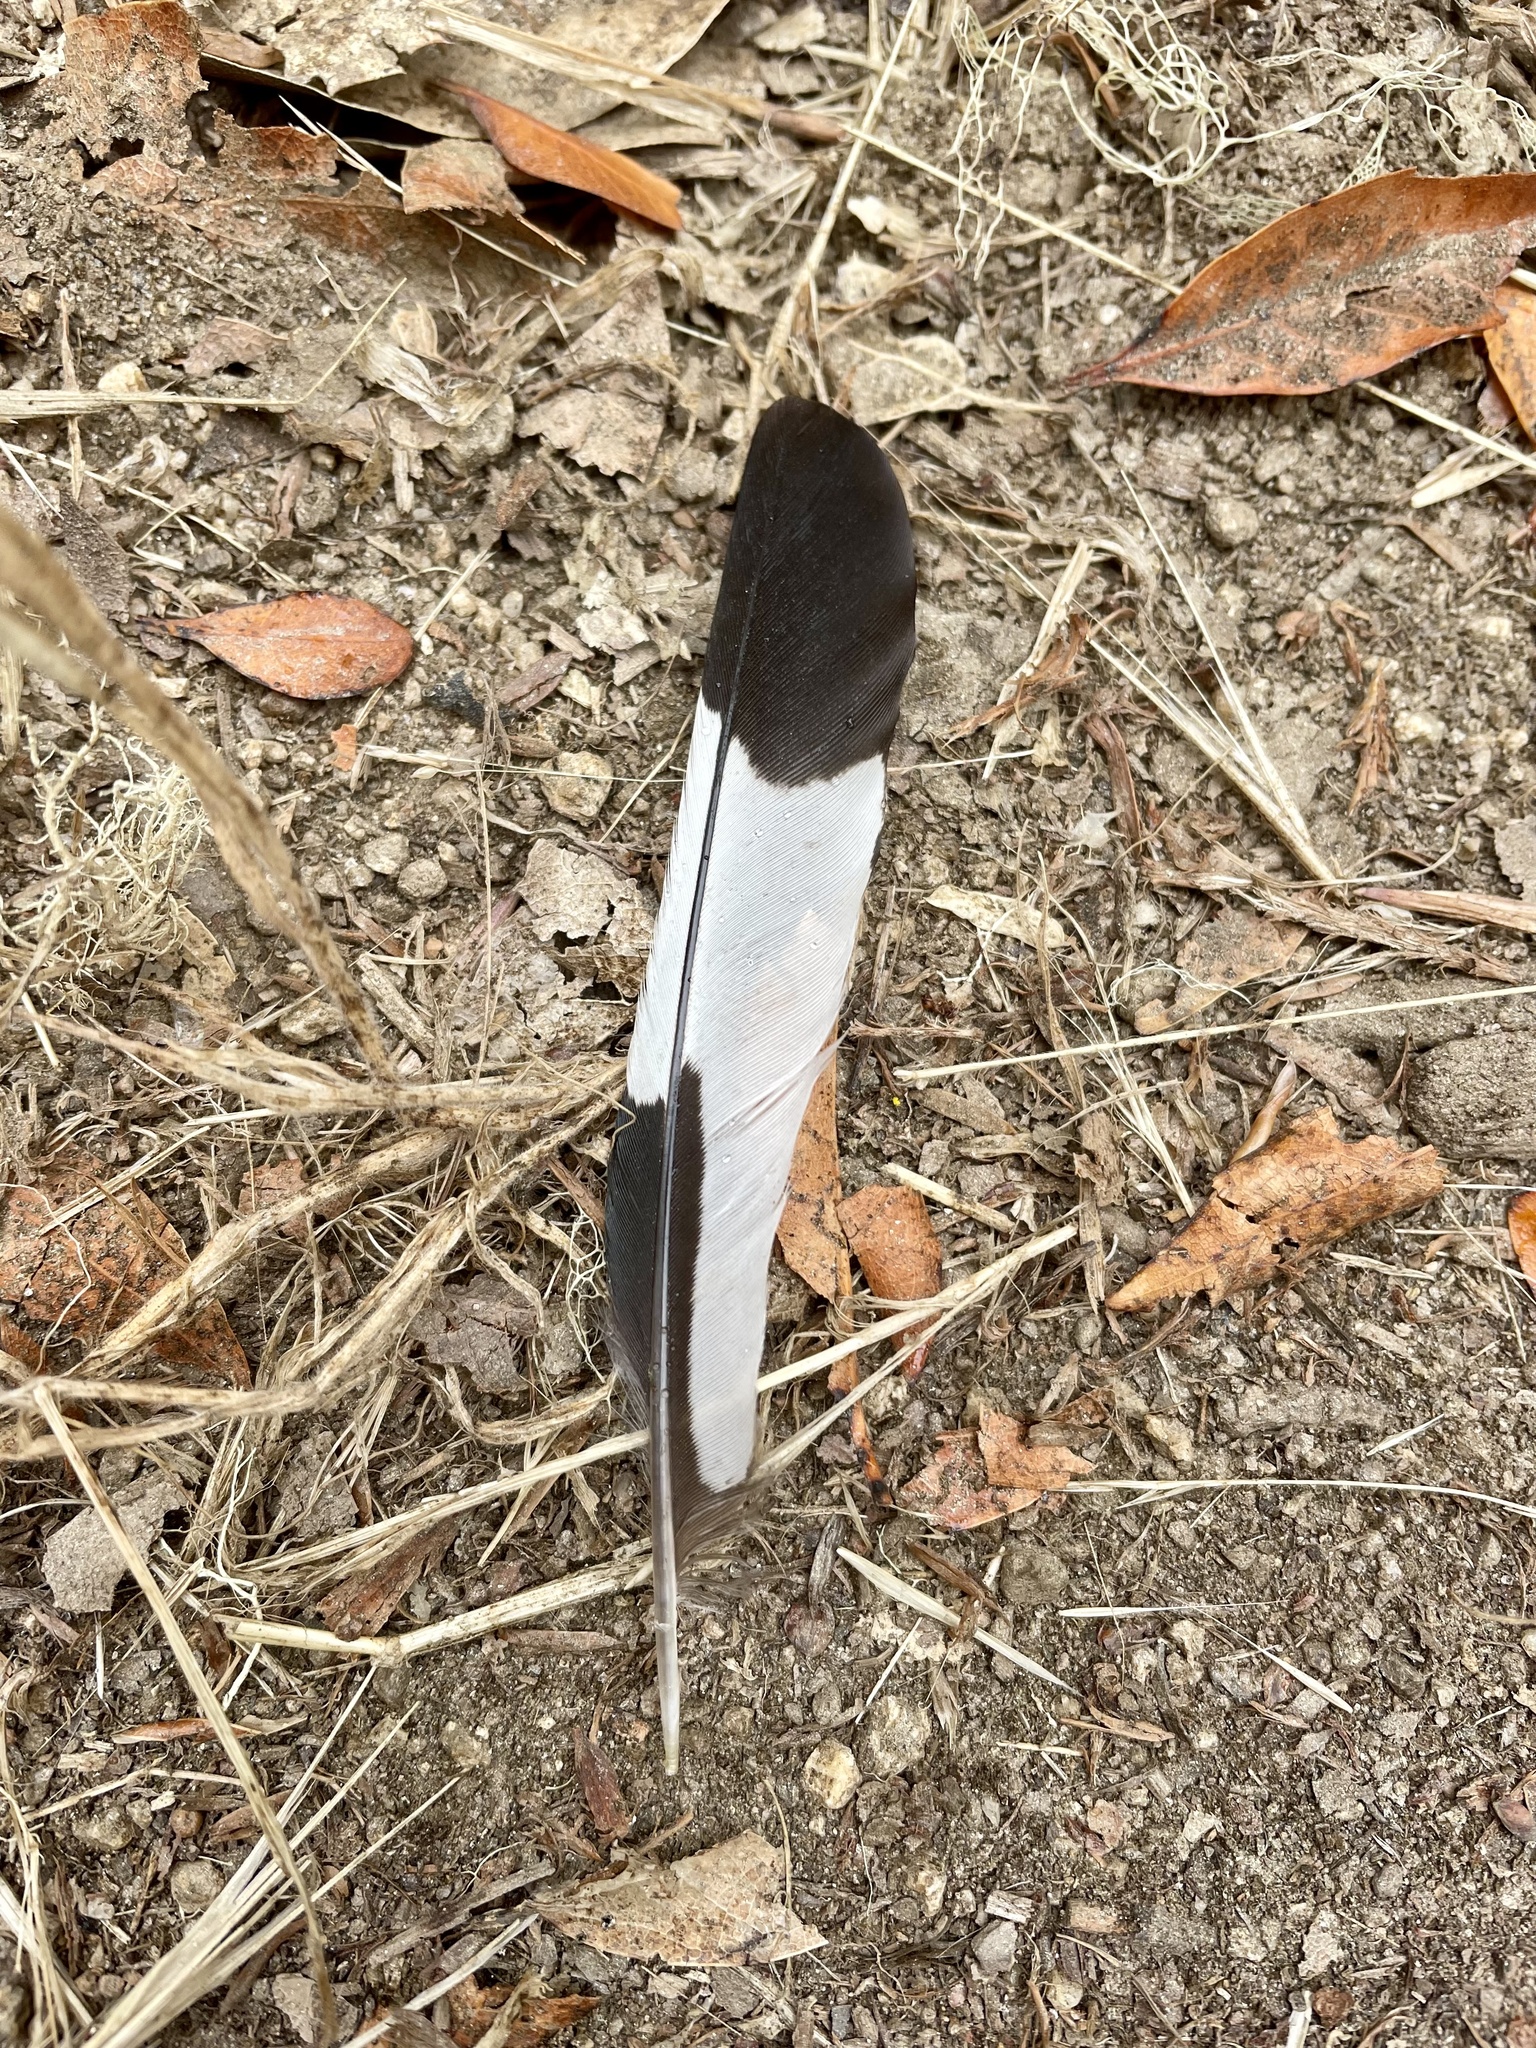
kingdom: Animalia
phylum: Chordata
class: Aves
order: Piciformes
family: Picidae
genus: Melanerpes
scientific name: Melanerpes formicivorus
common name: Acorn woodpecker
